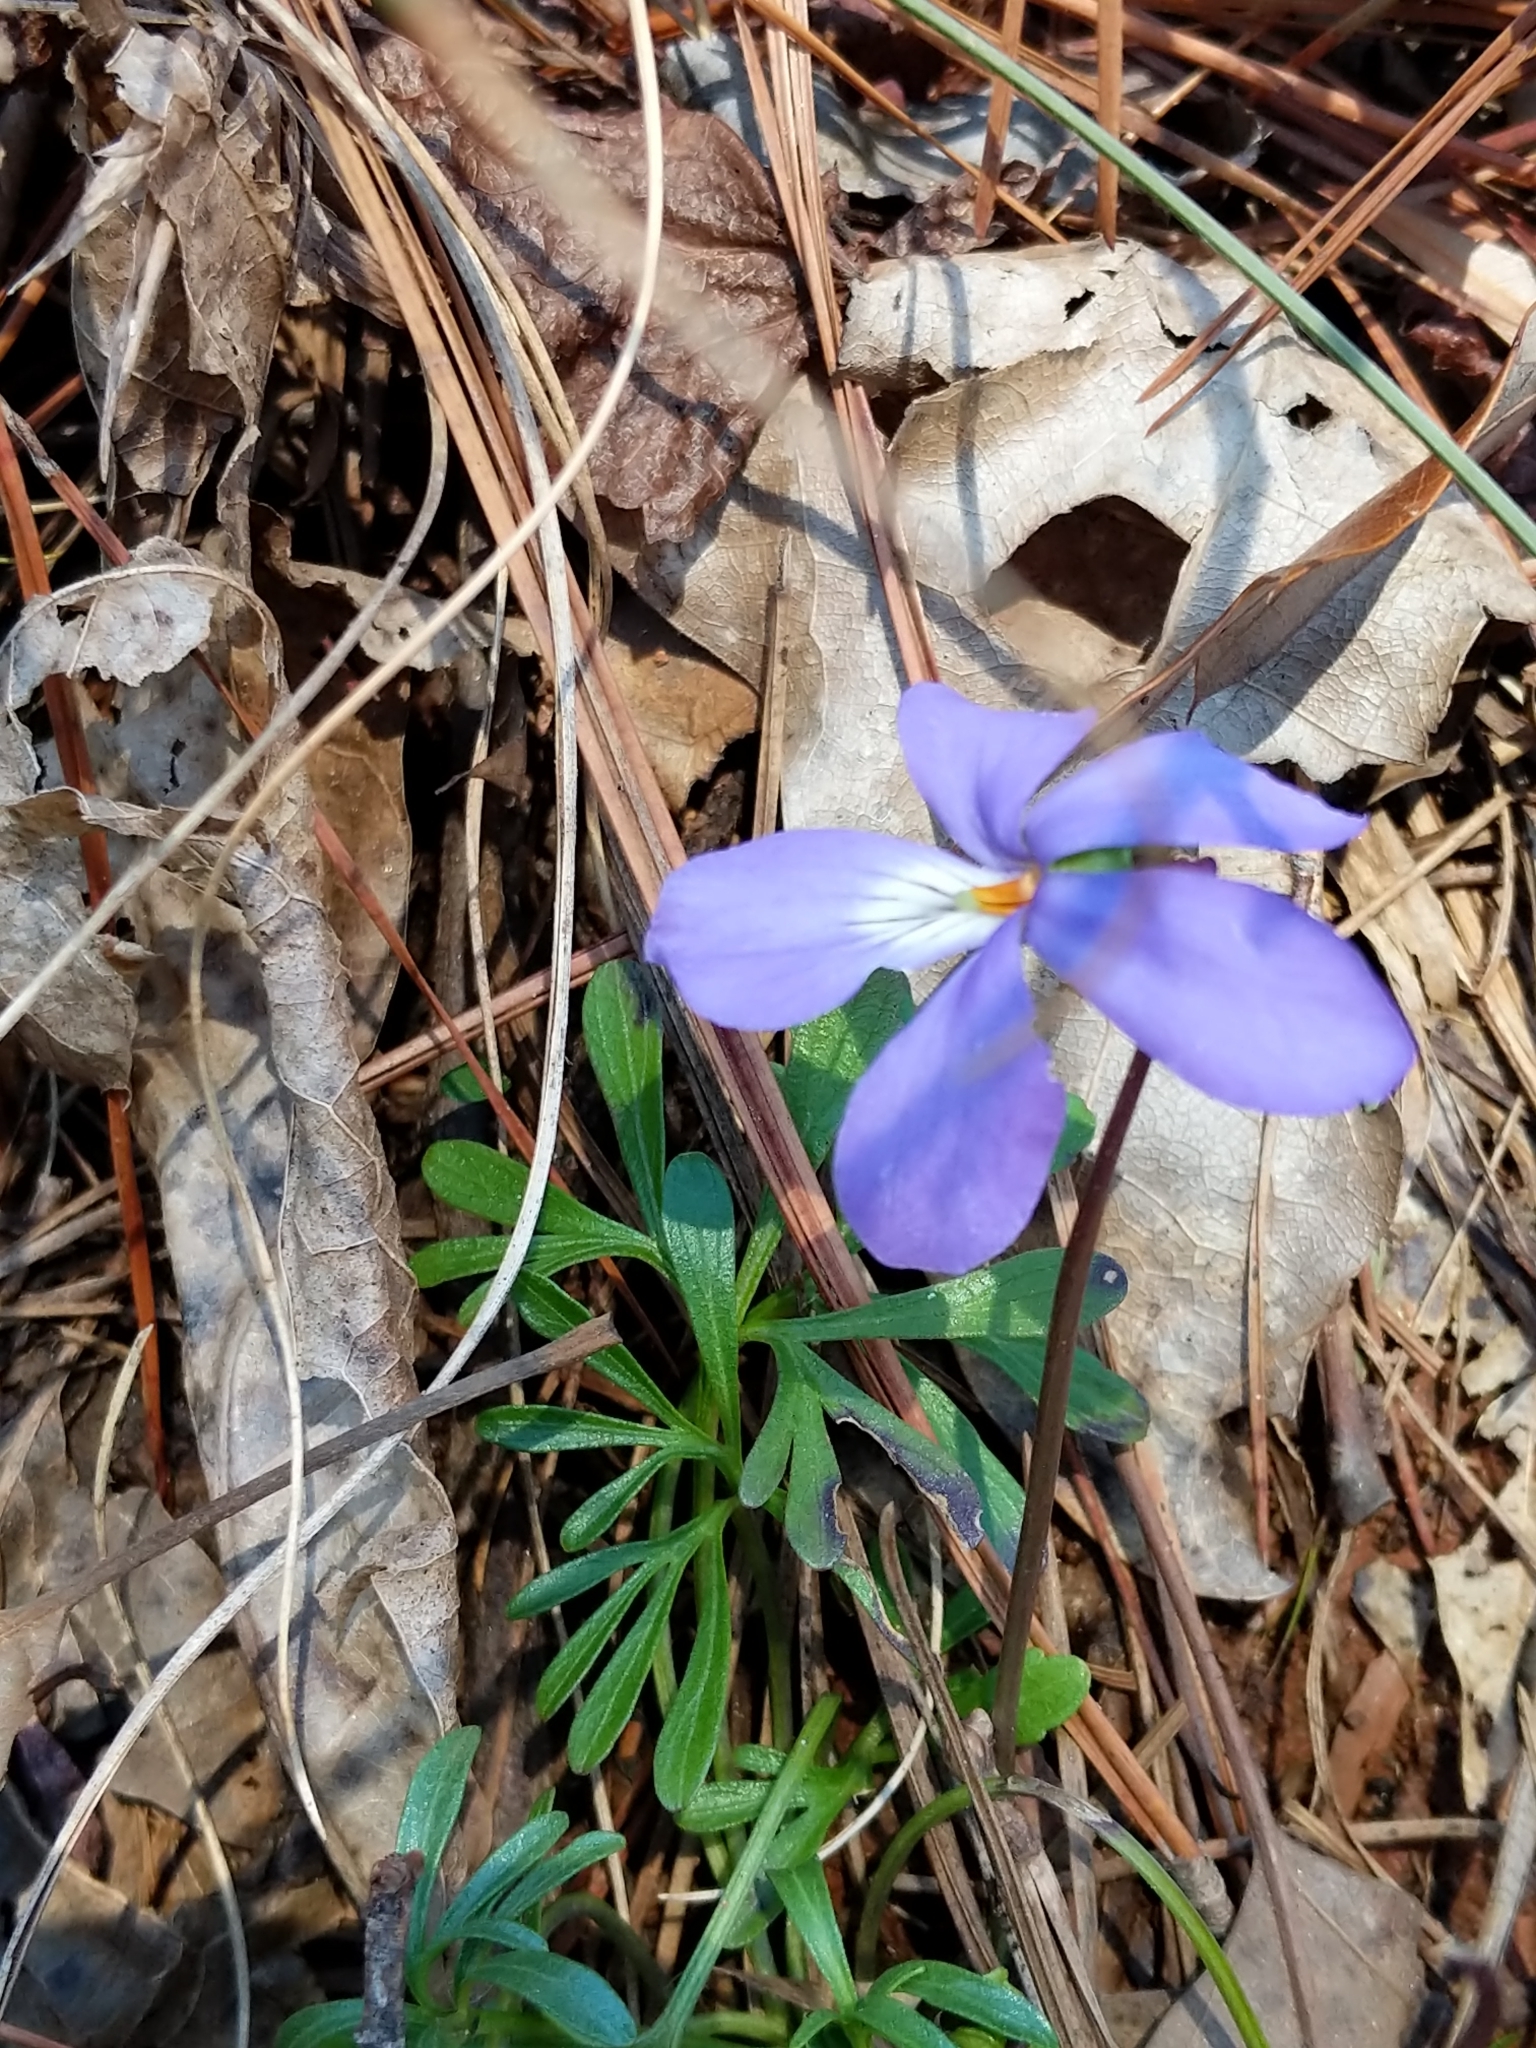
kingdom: Plantae
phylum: Tracheophyta
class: Magnoliopsida
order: Malpighiales
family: Violaceae
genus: Viola
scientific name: Viola pedata
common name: Pansy violet
